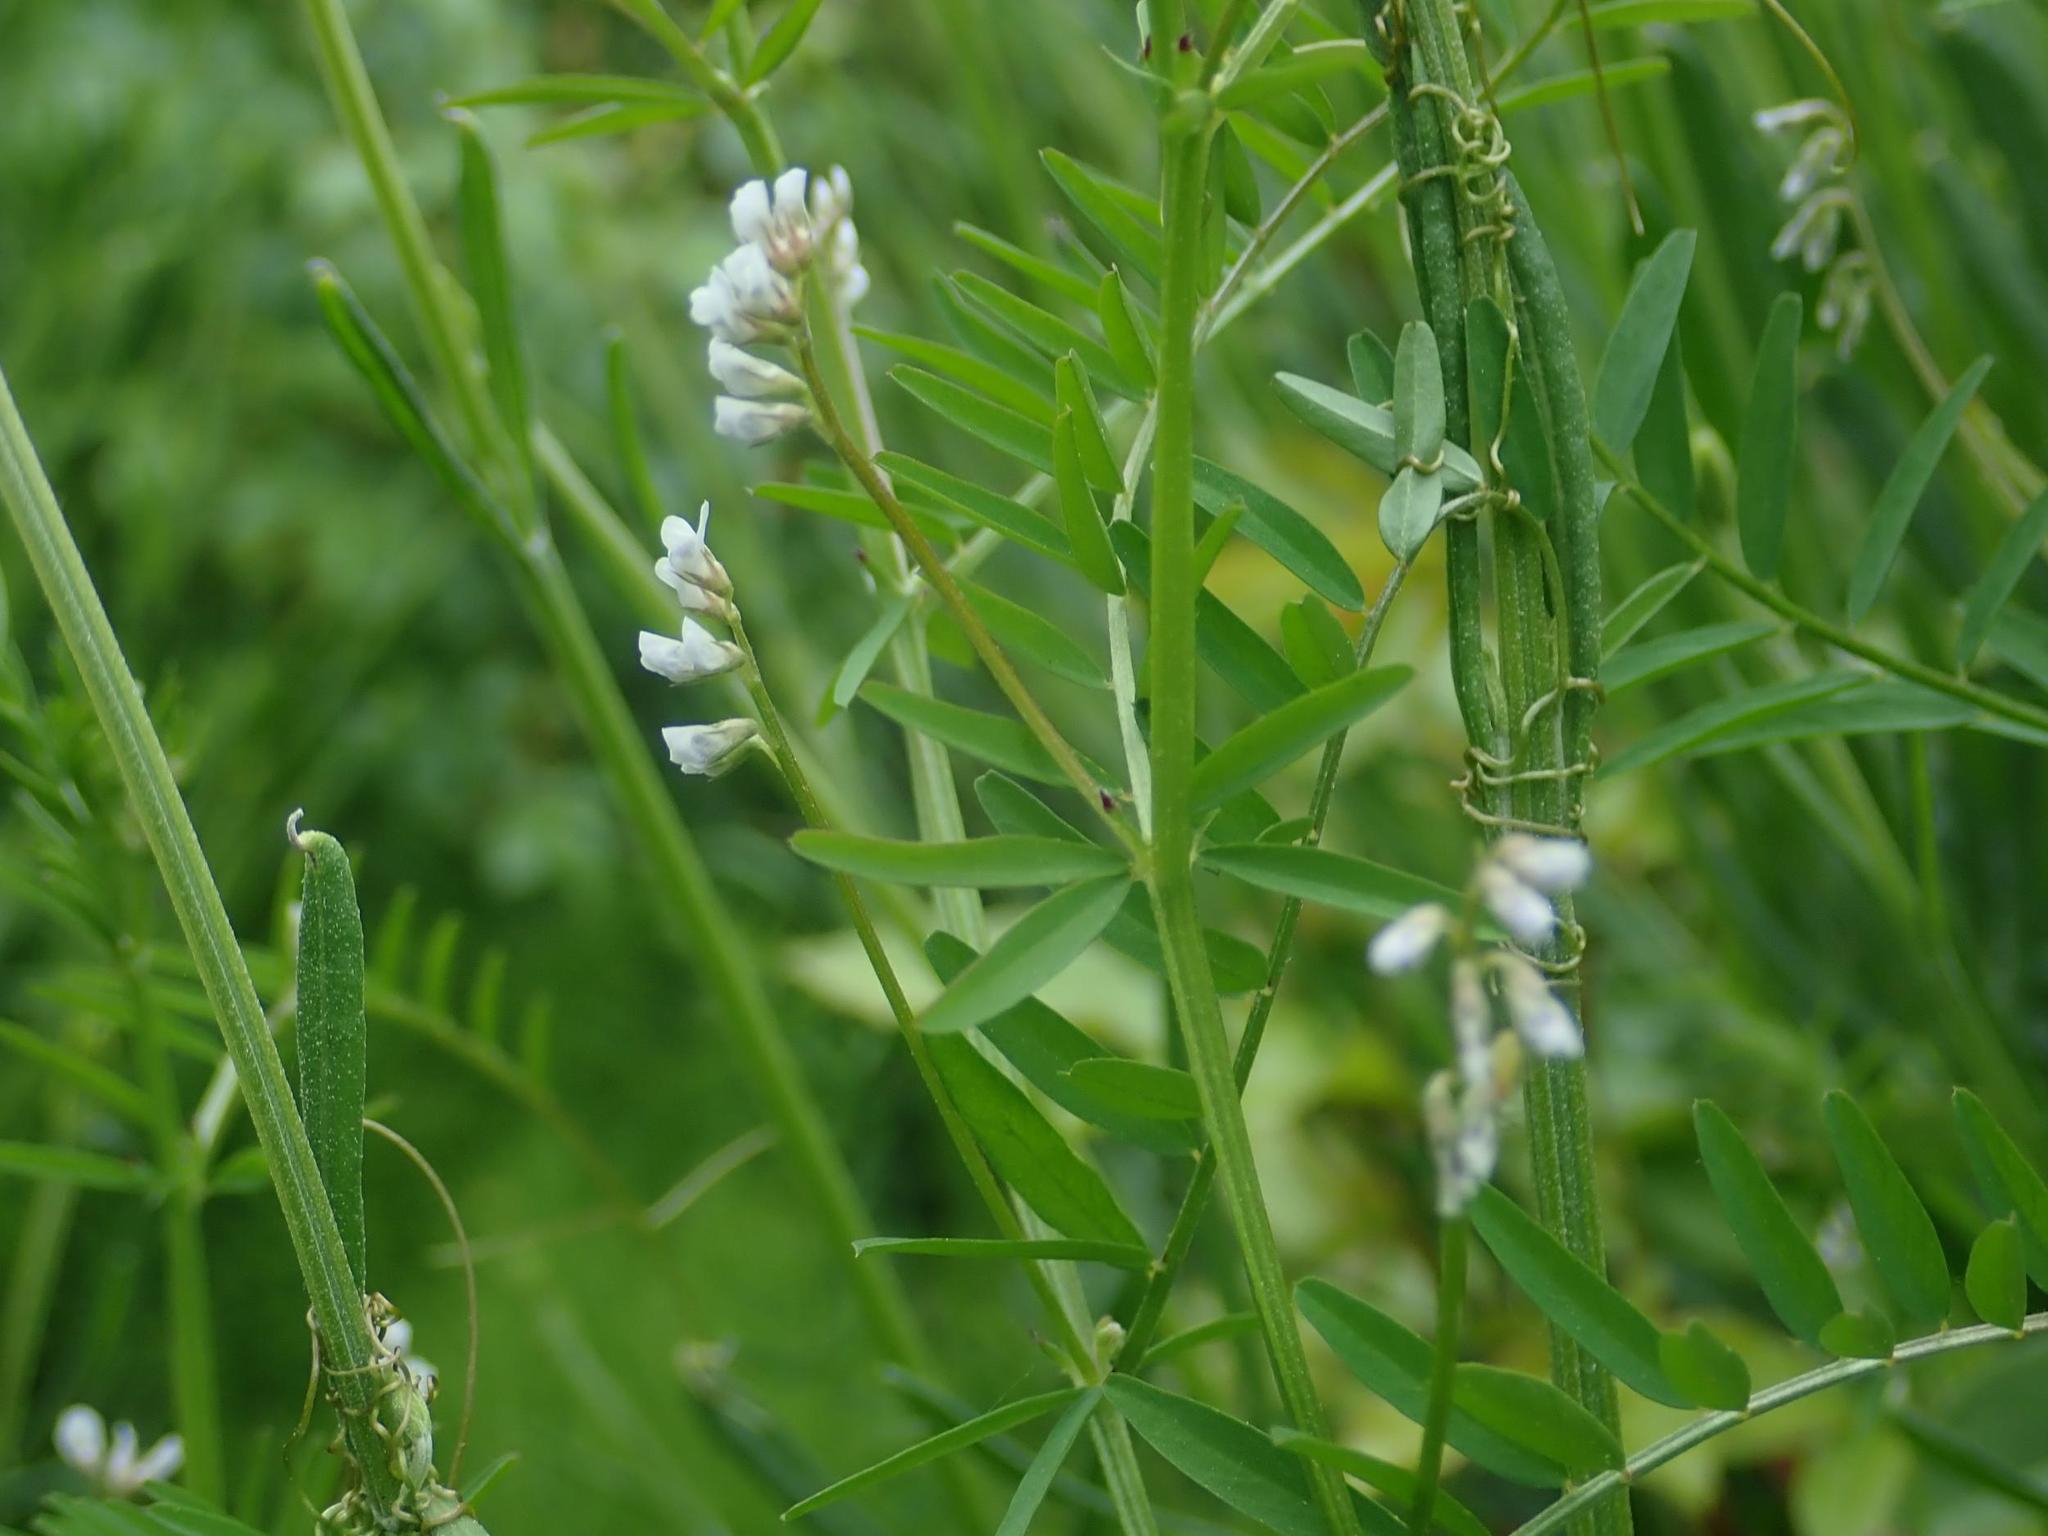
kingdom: Plantae
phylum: Tracheophyta
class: Magnoliopsida
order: Fabales
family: Fabaceae
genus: Vicia
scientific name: Vicia hirsuta
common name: Tiny vetch
